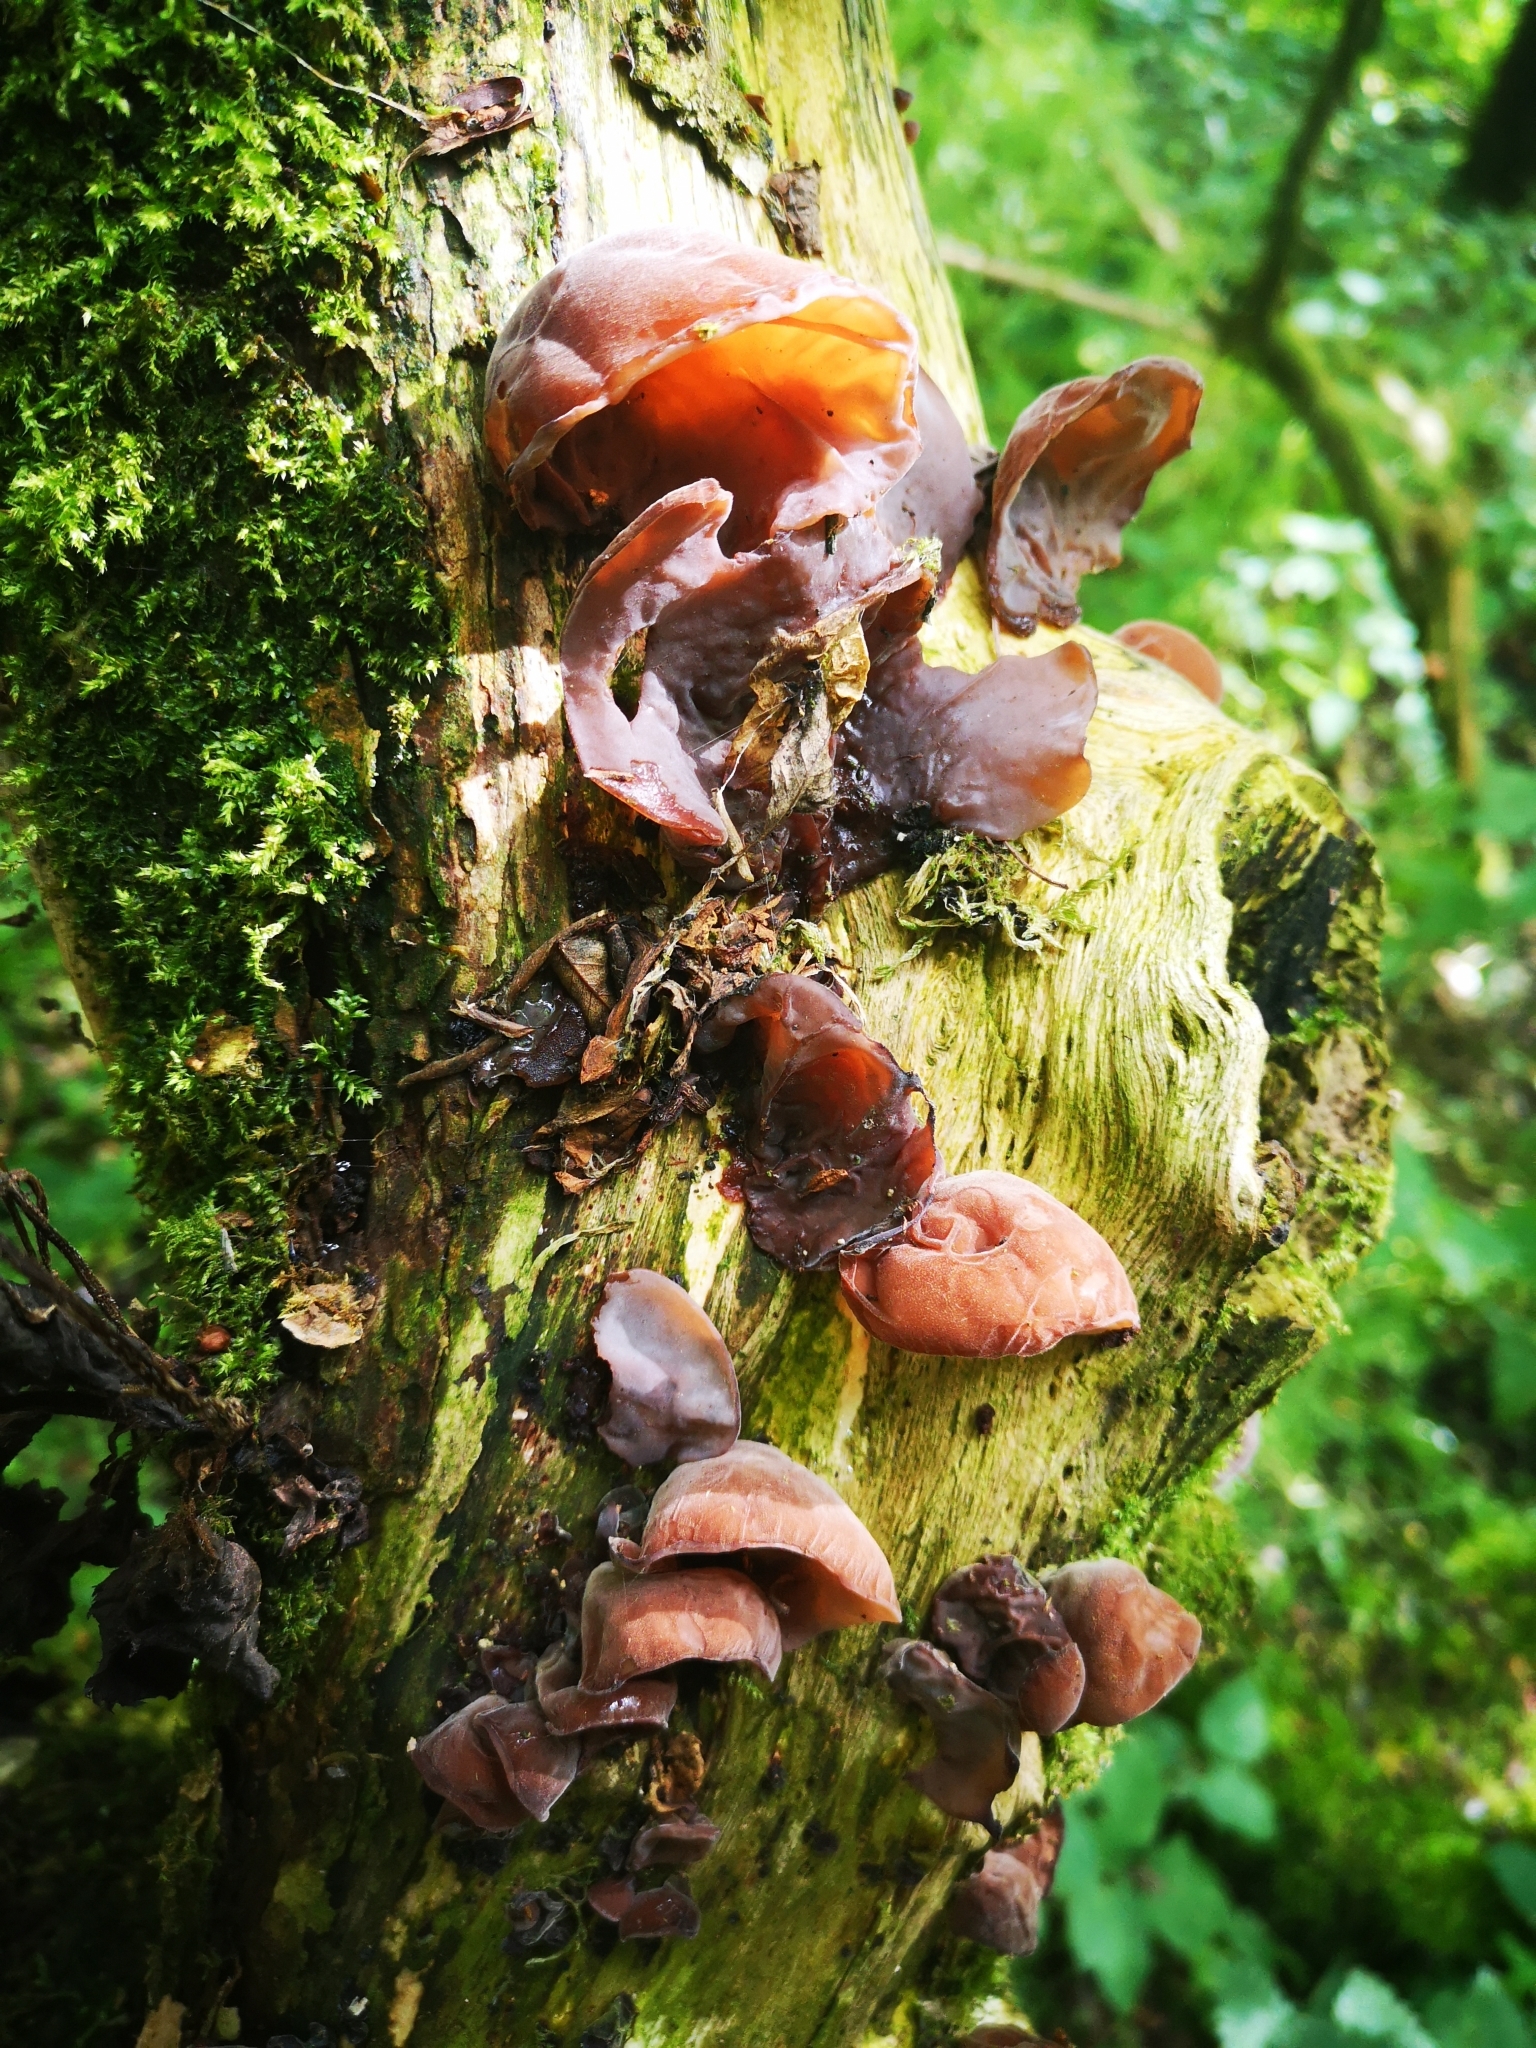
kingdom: Fungi
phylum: Basidiomycota
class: Agaricomycetes
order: Auriculariales
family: Auriculariaceae
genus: Auricularia
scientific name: Auricularia auricula-judae
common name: Jelly ear
